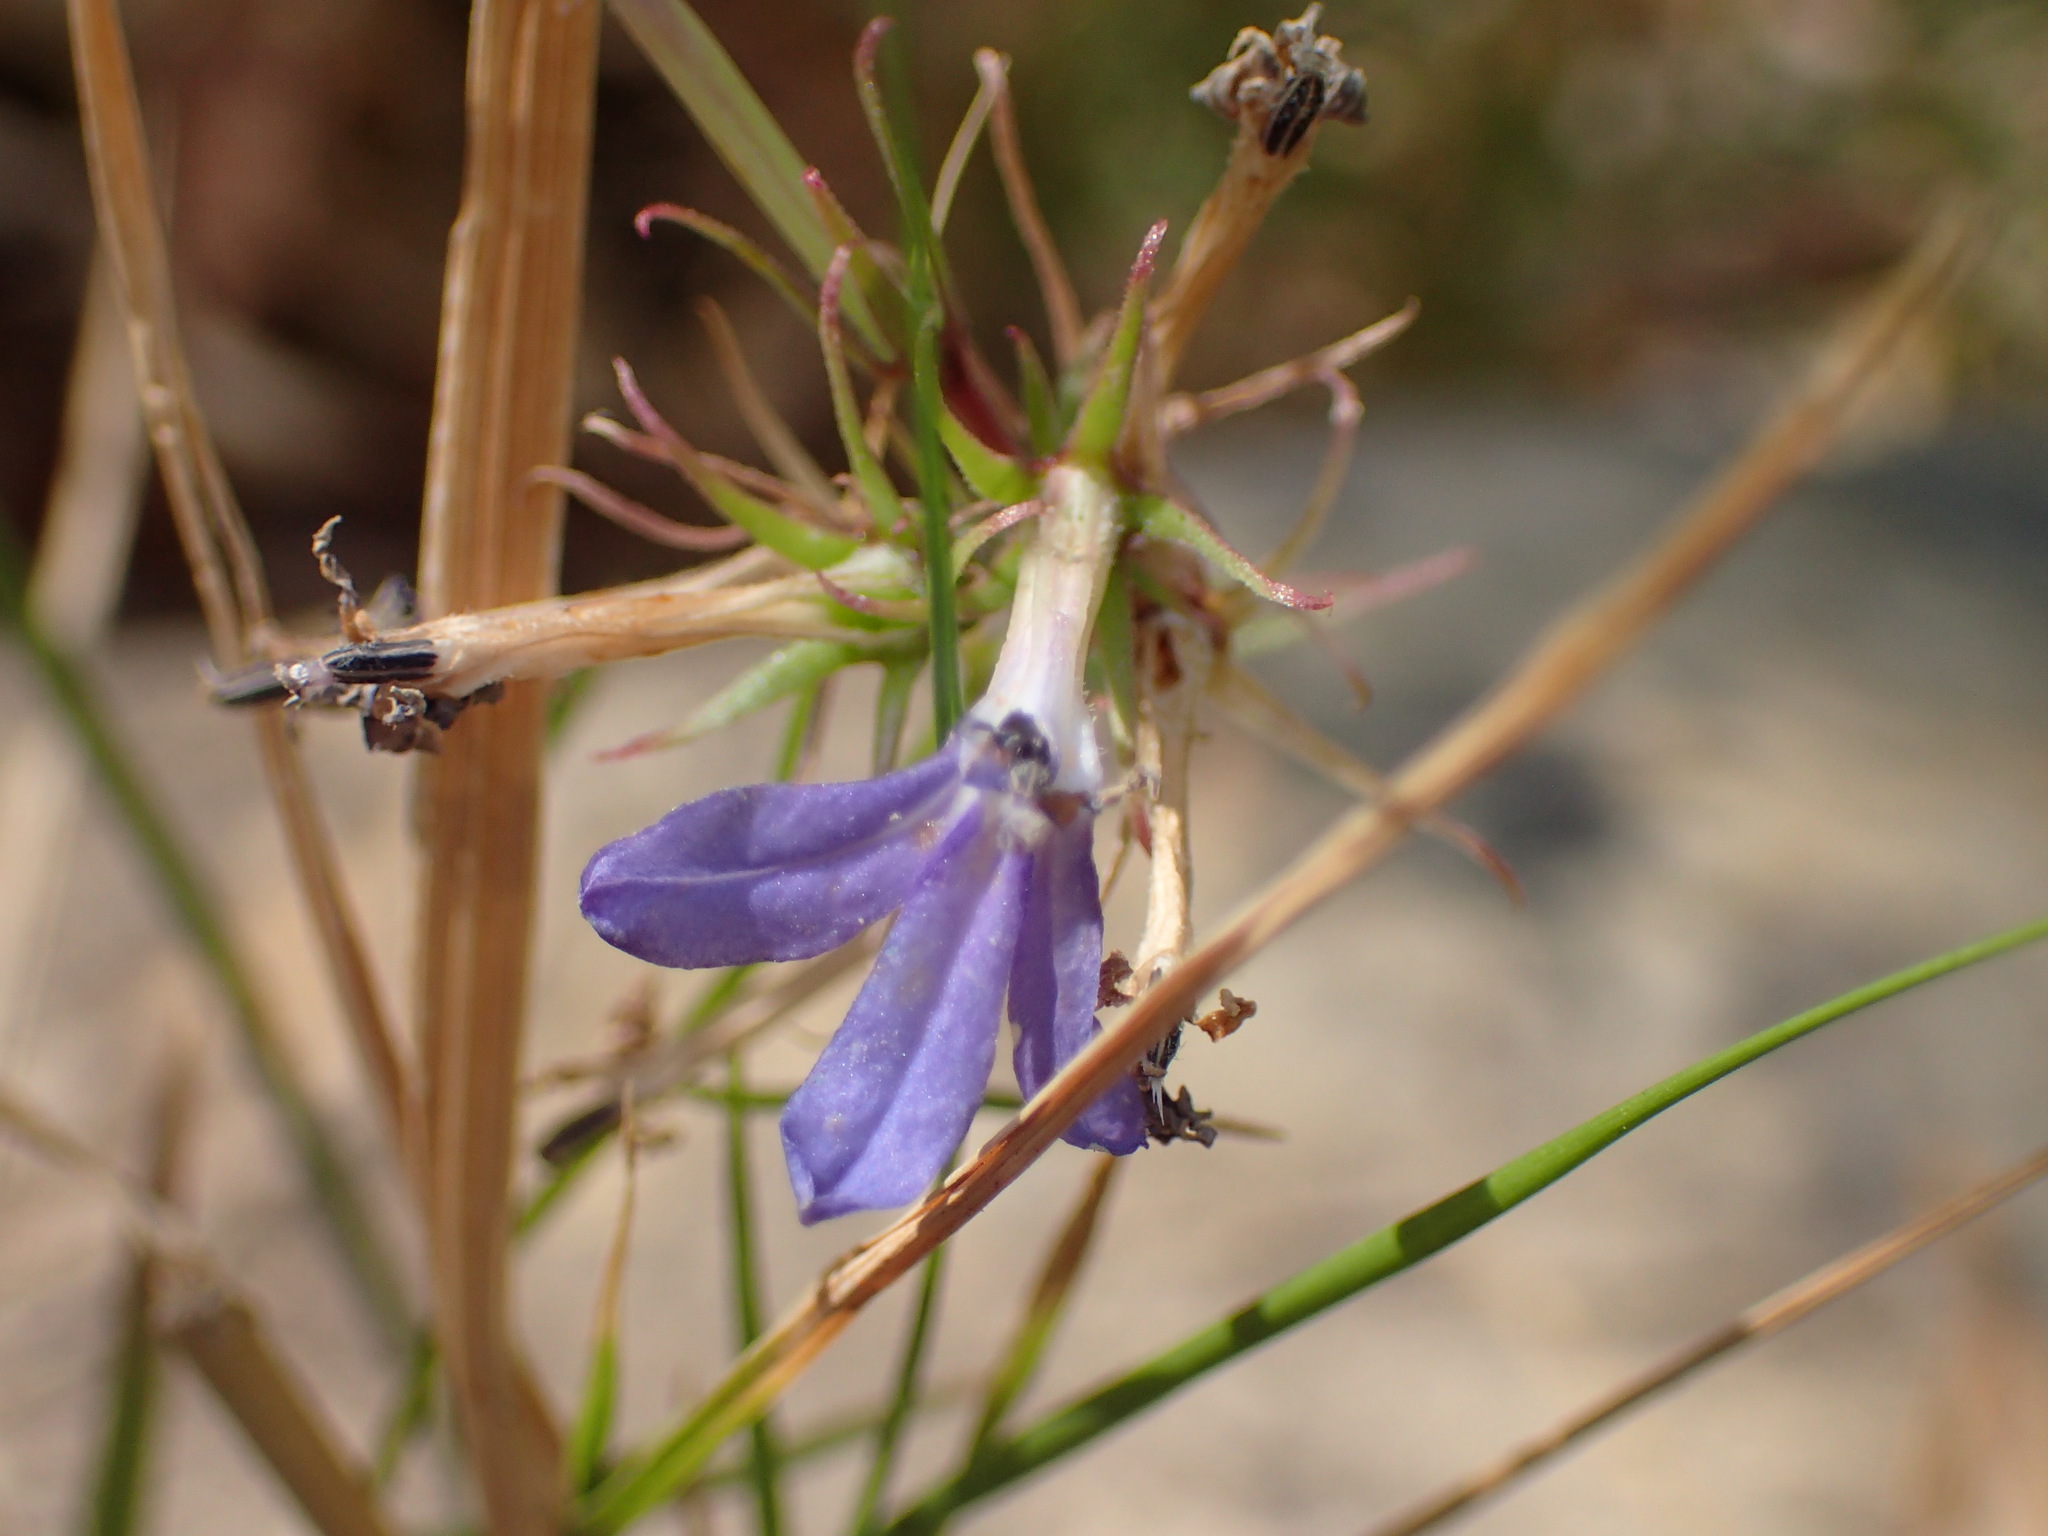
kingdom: Plantae
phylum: Tracheophyta
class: Magnoliopsida
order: Asterales
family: Campanulaceae
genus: Palmerella
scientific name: Palmerella debilis
